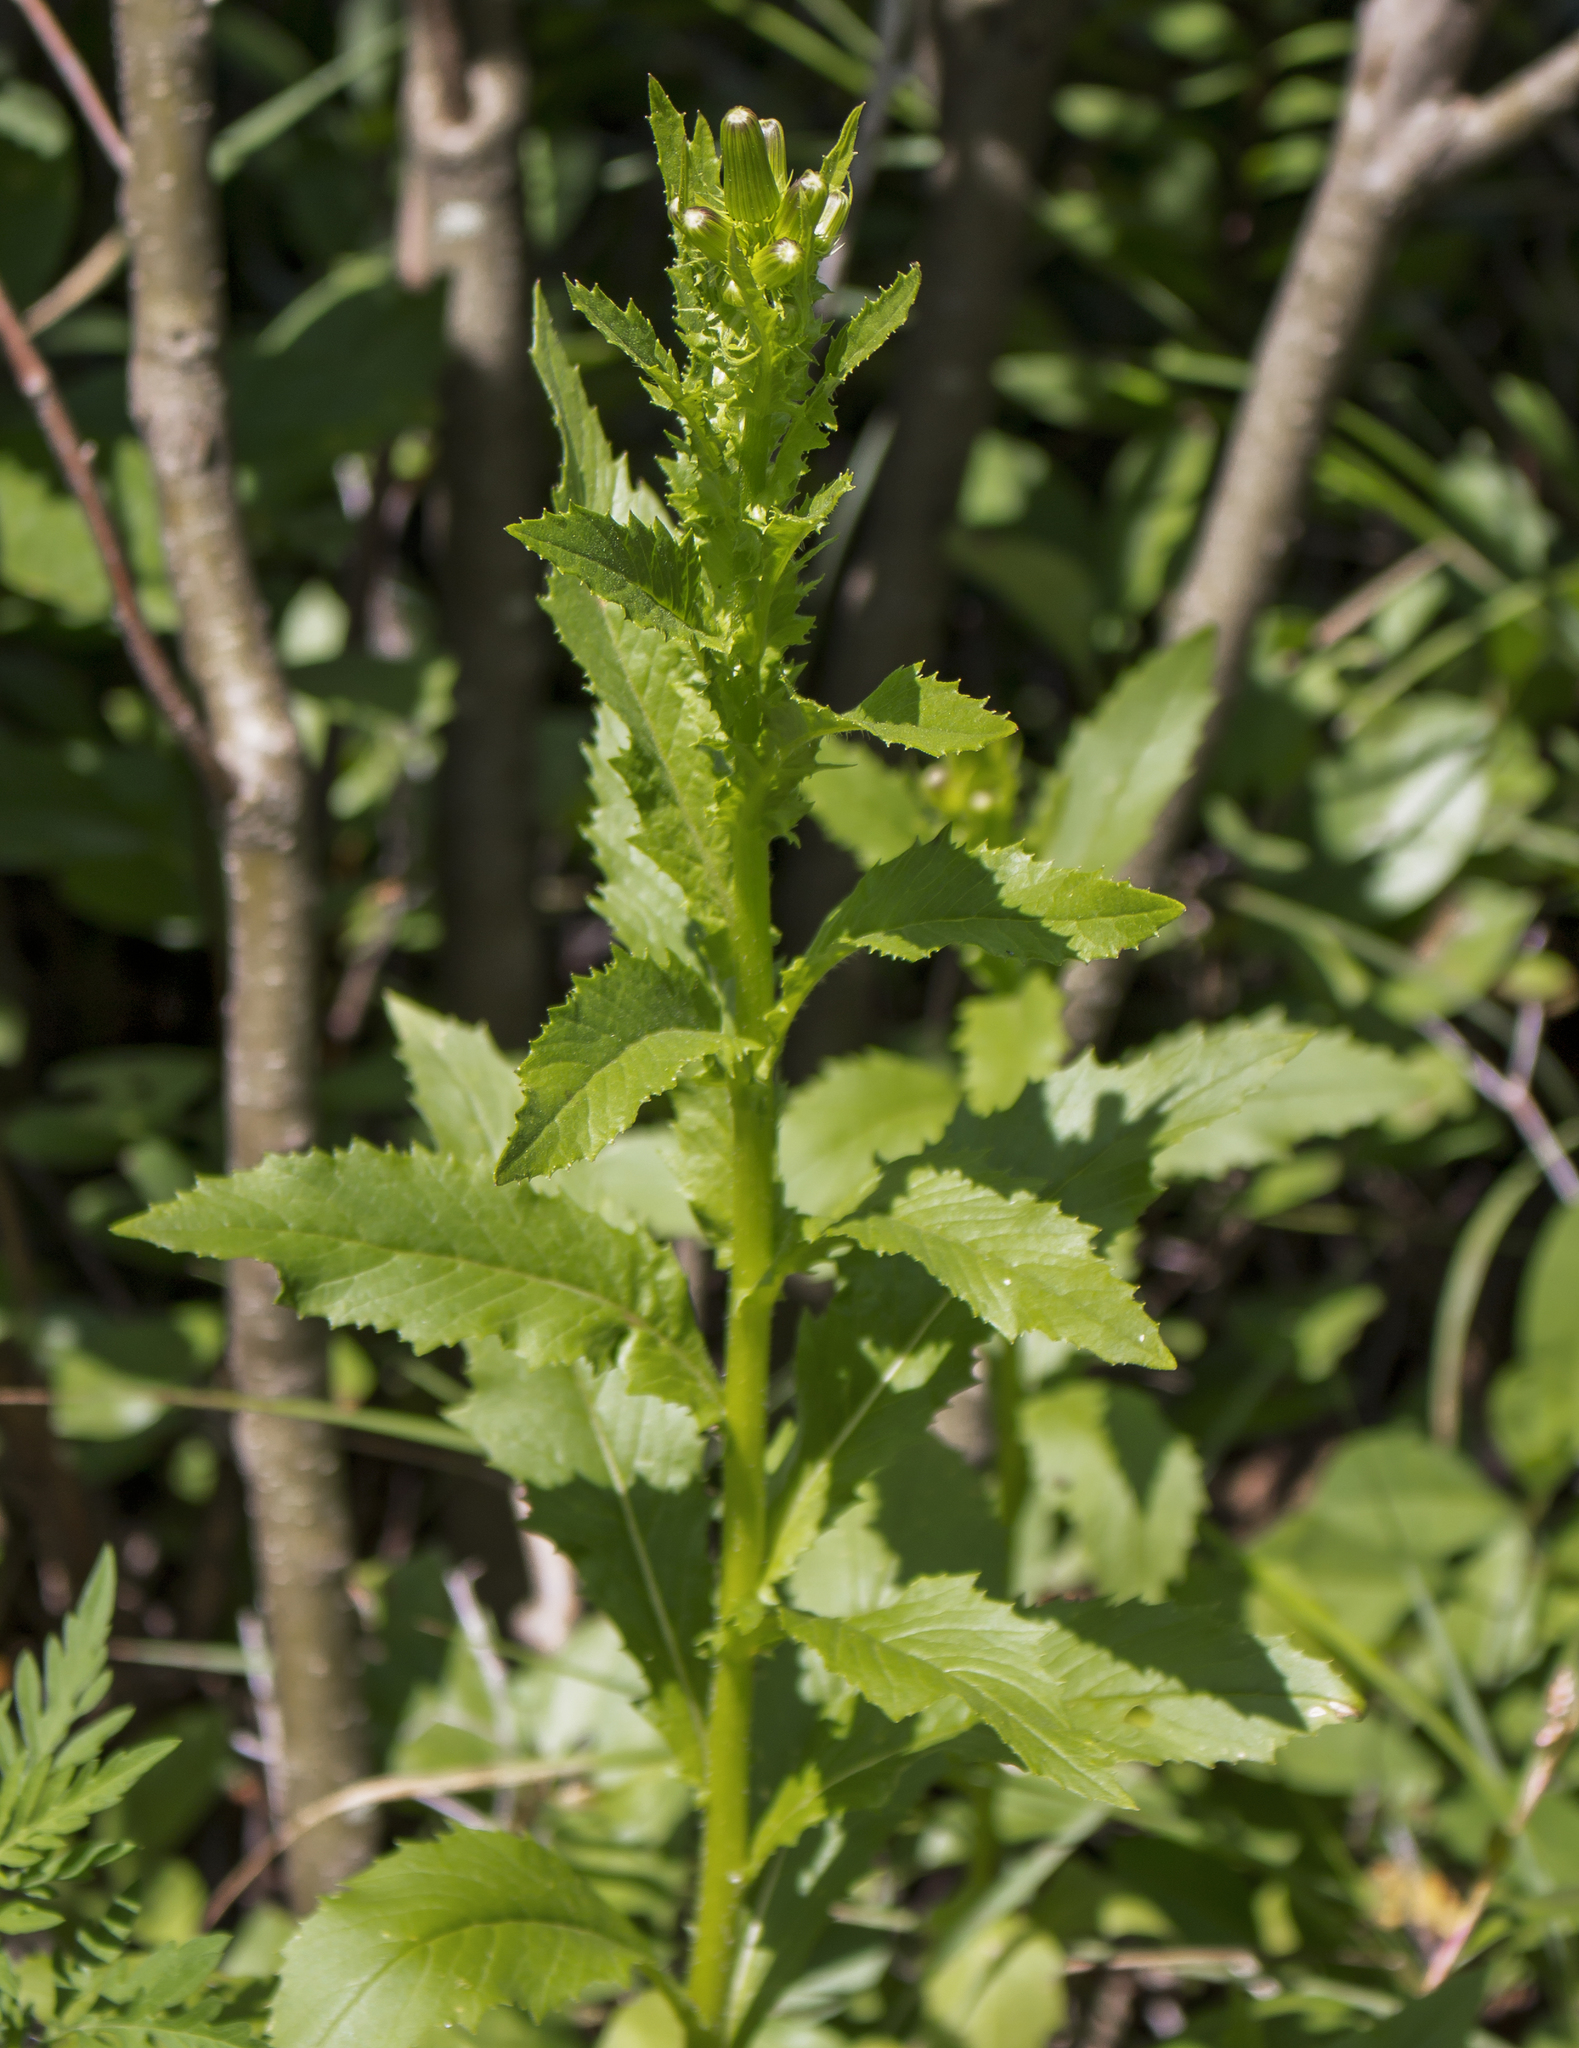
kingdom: Plantae
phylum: Tracheophyta
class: Magnoliopsida
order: Asterales
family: Asteraceae
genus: Erechtites
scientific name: Erechtites hieraciifolius
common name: American burnweed
